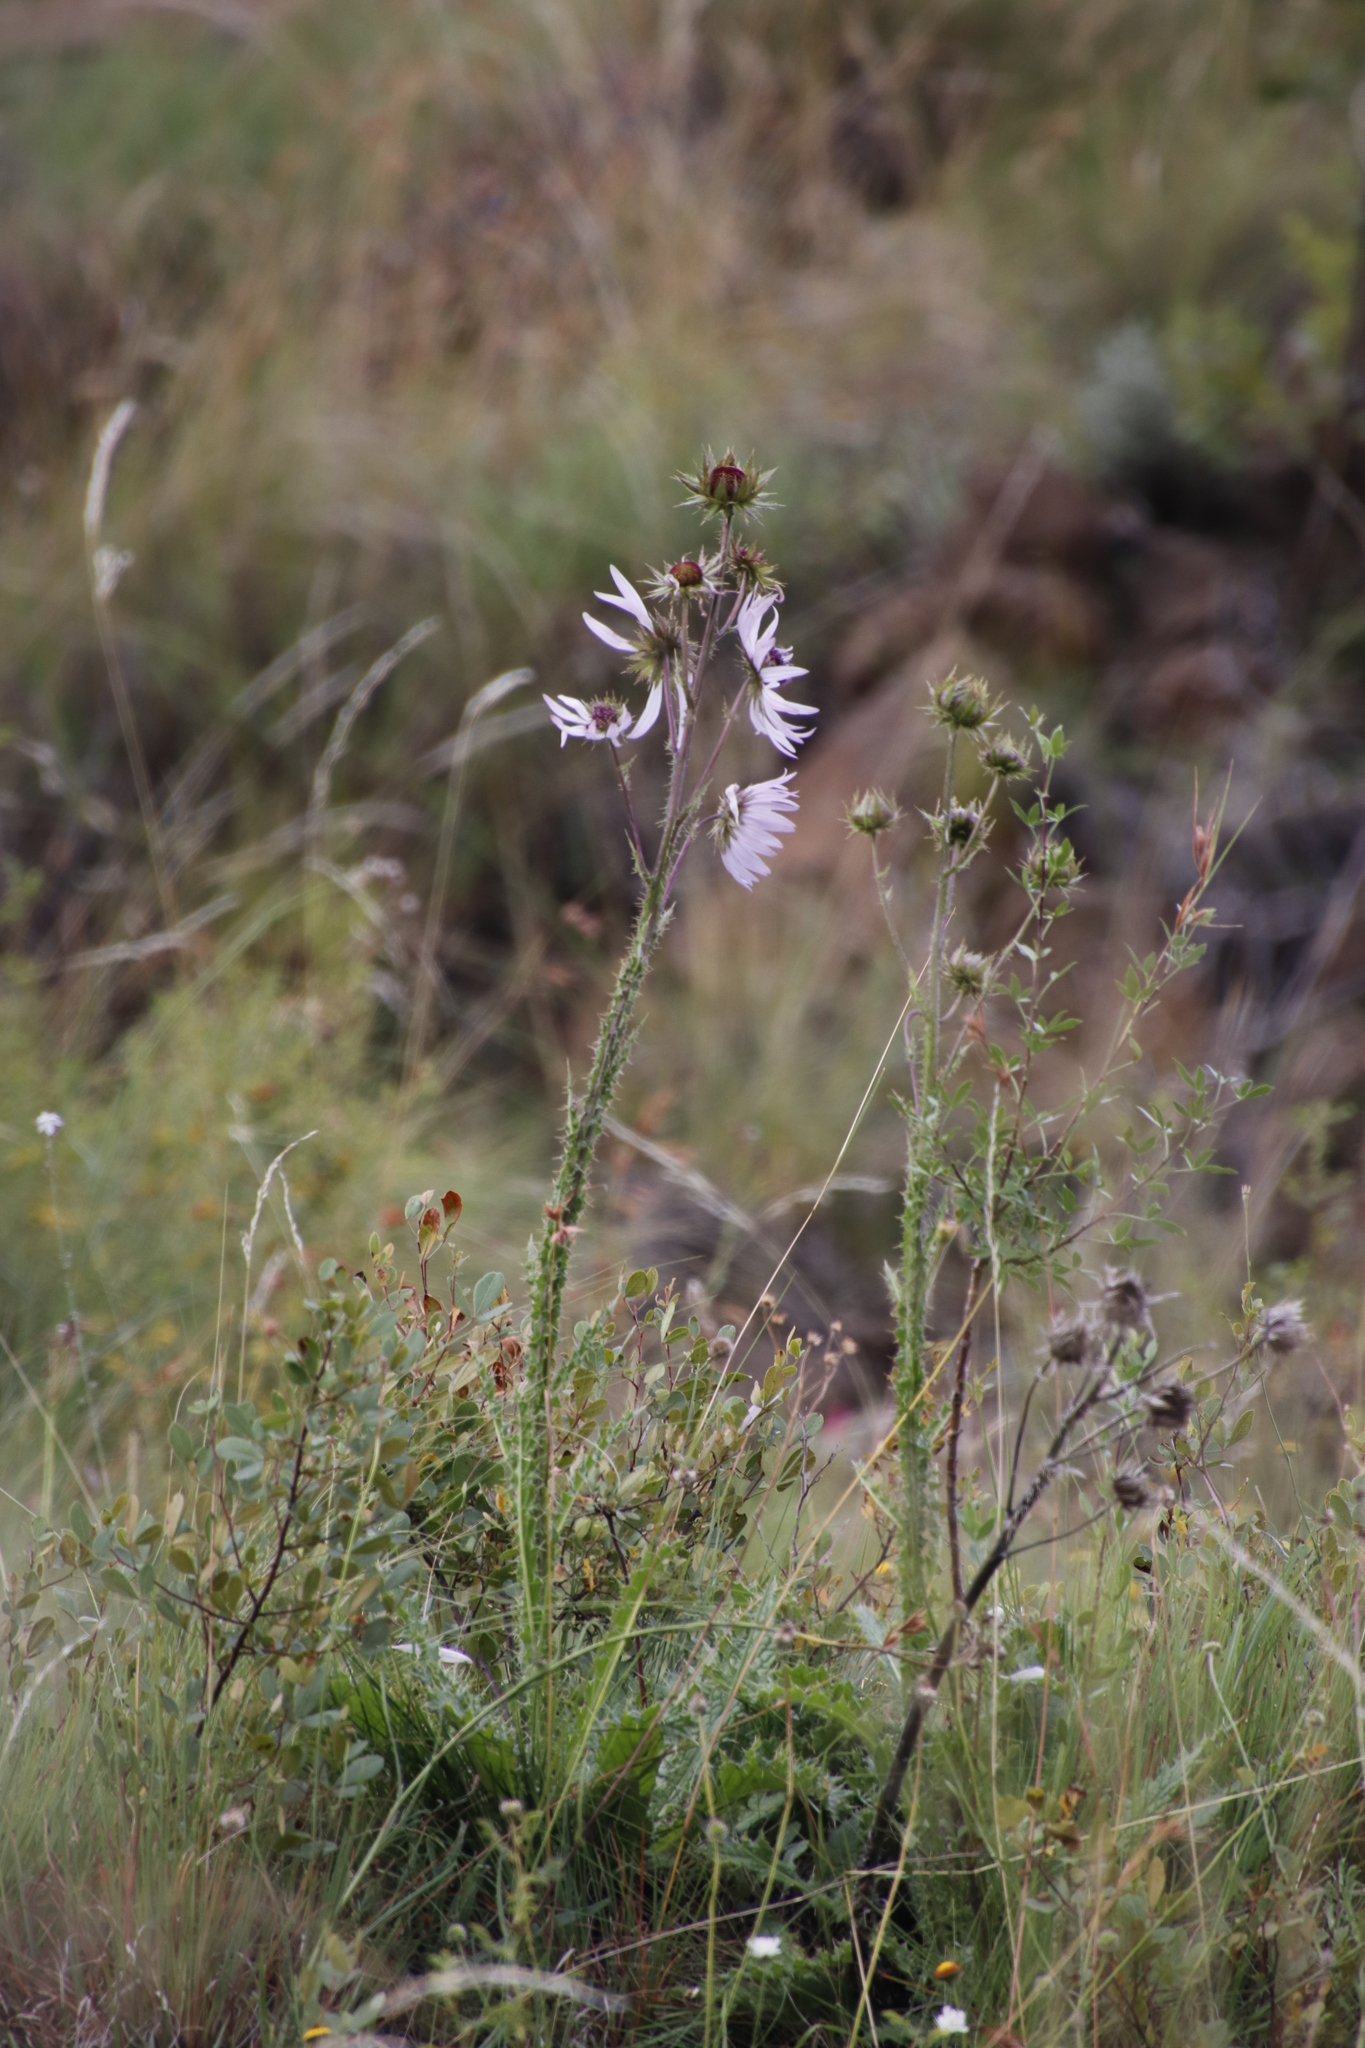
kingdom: Plantae
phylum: Tracheophyta
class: Magnoliopsida
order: Asterales
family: Asteraceae
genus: Berkheya
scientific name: Berkheya purpurea
